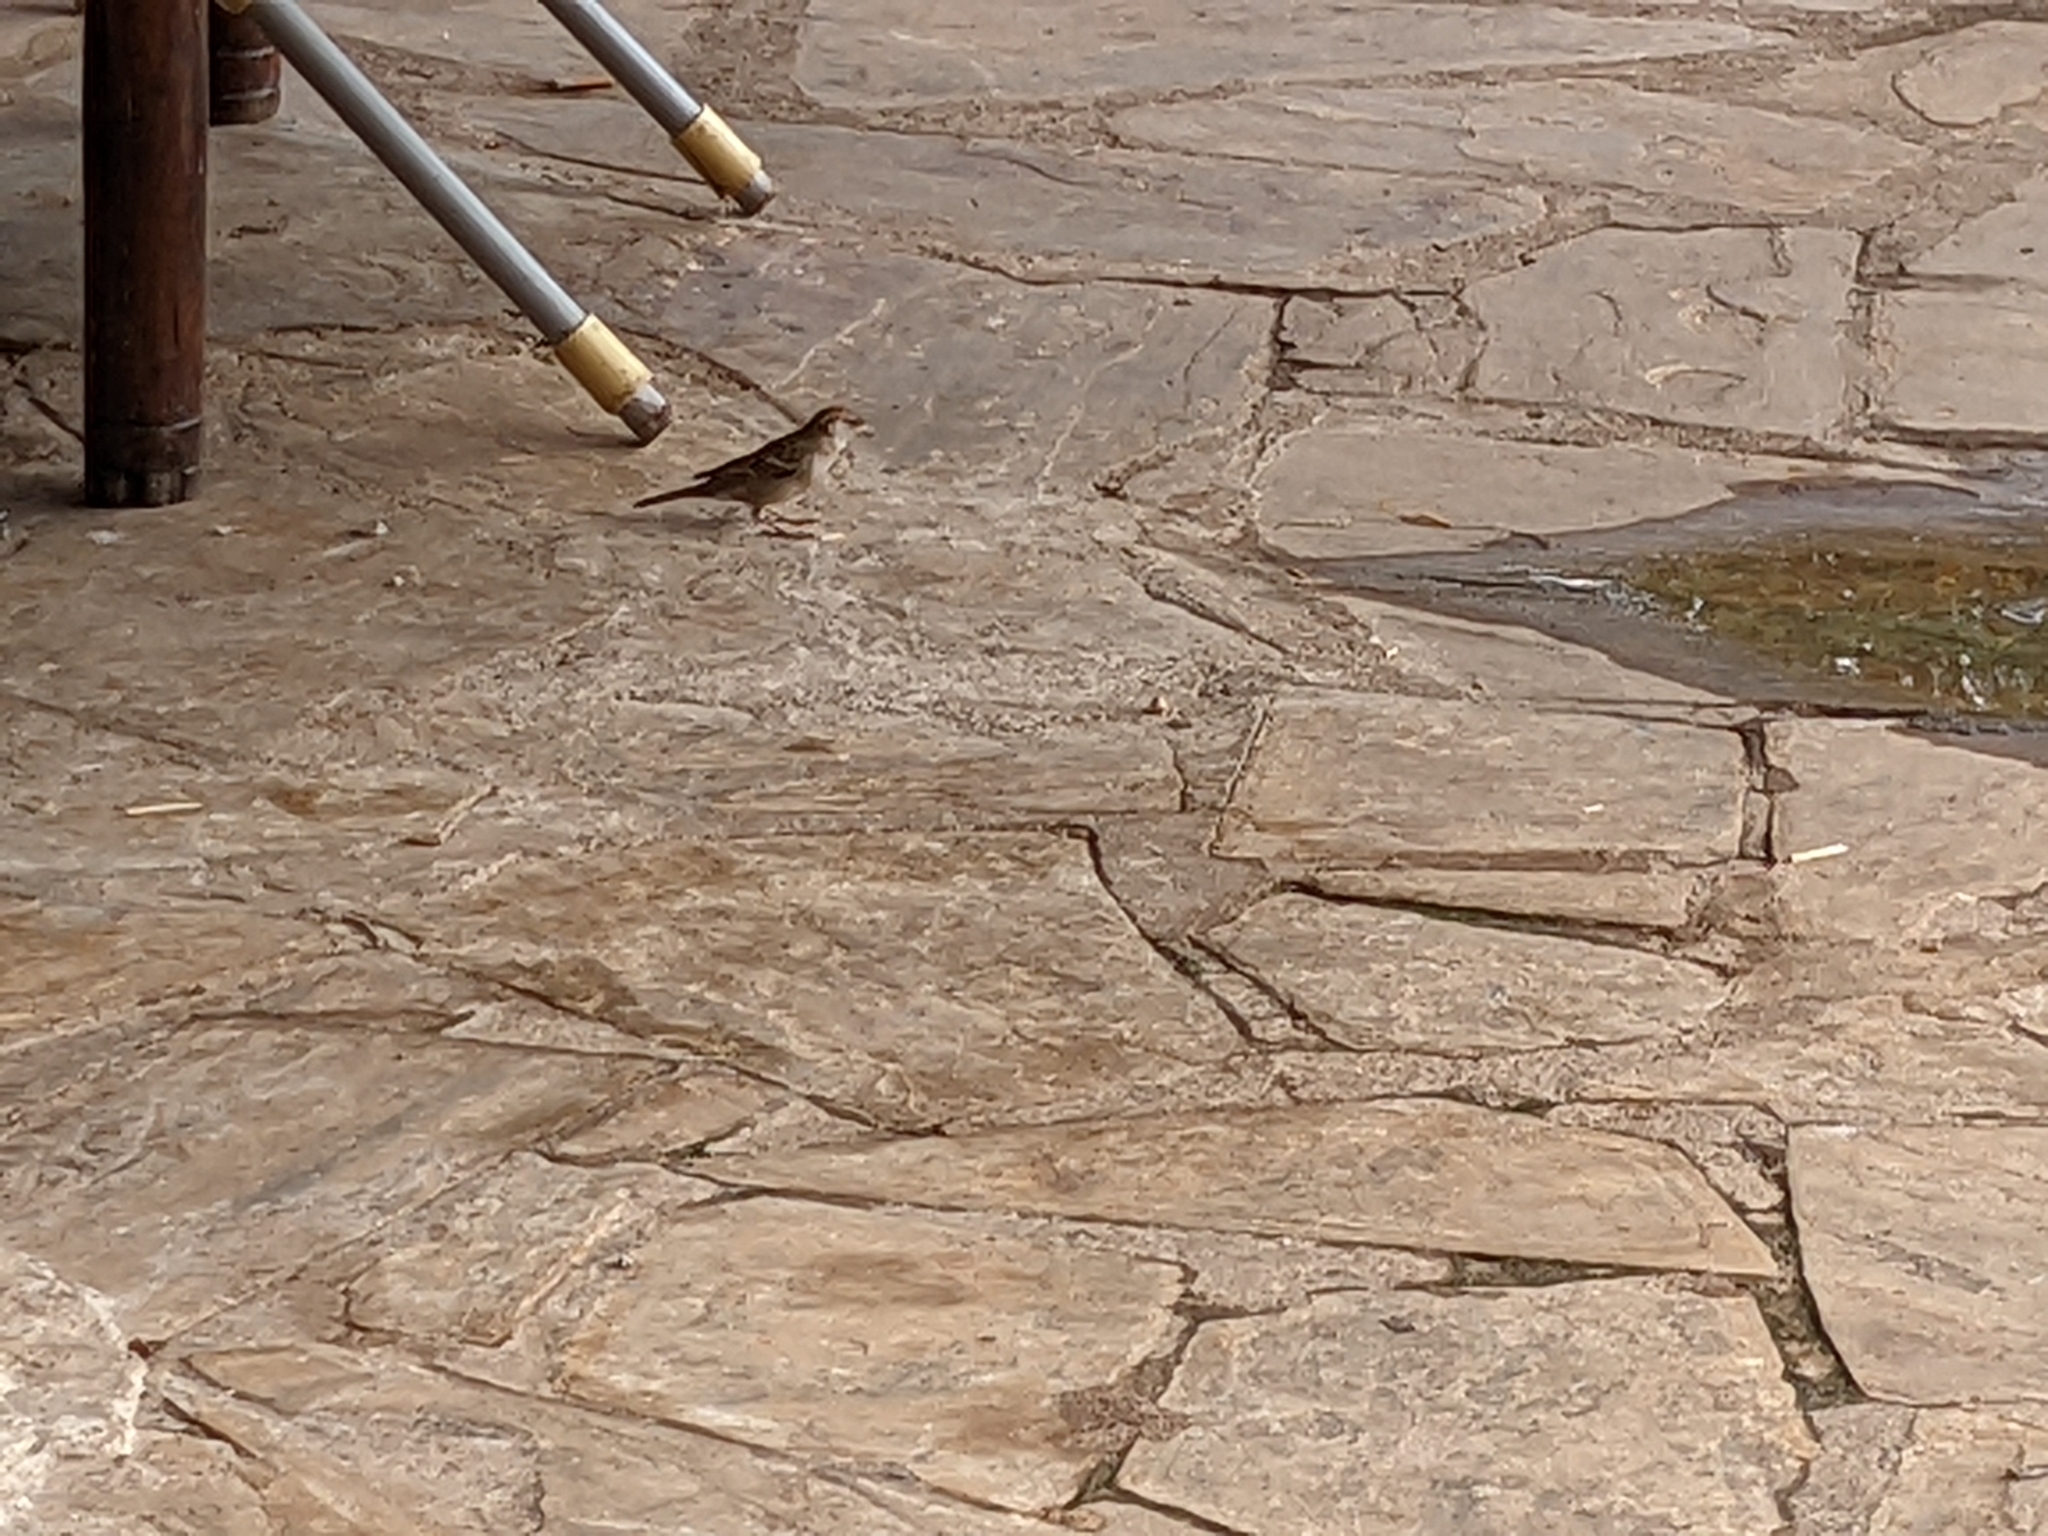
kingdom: Animalia
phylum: Chordata
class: Aves
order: Passeriformes
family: Passeridae
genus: Passer
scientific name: Passer domesticus
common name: House sparrow
